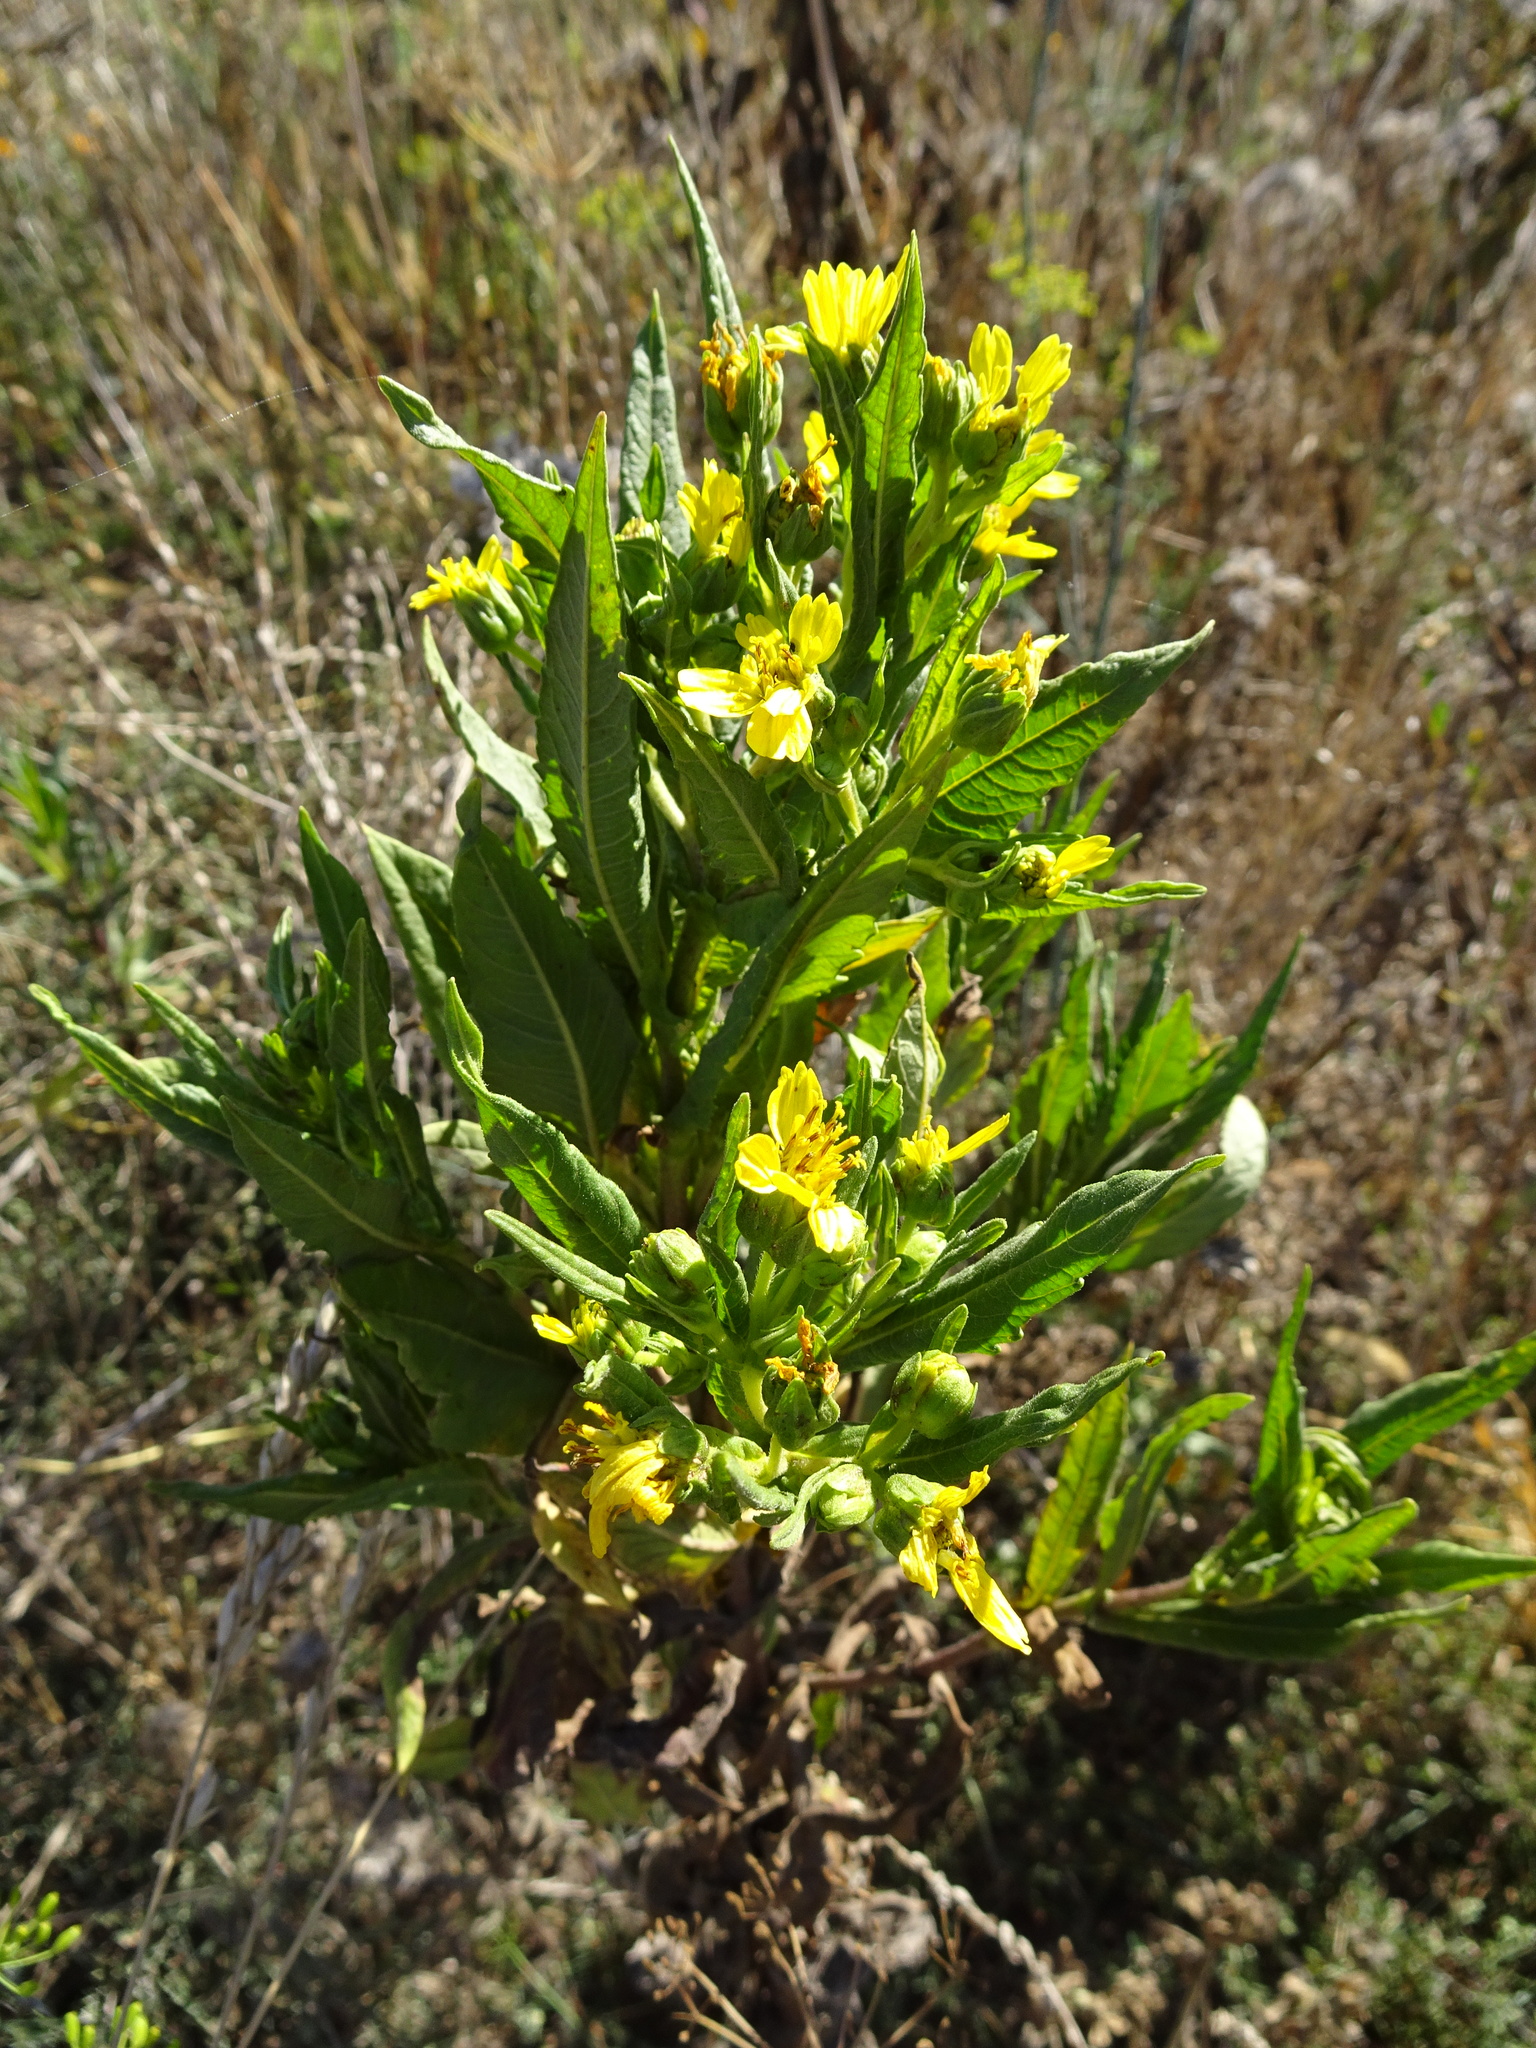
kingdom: Plantae
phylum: Tracheophyta
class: Magnoliopsida
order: Asterales
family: Asteraceae
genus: Guizotia
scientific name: Guizotia abyssinica
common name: Niger
